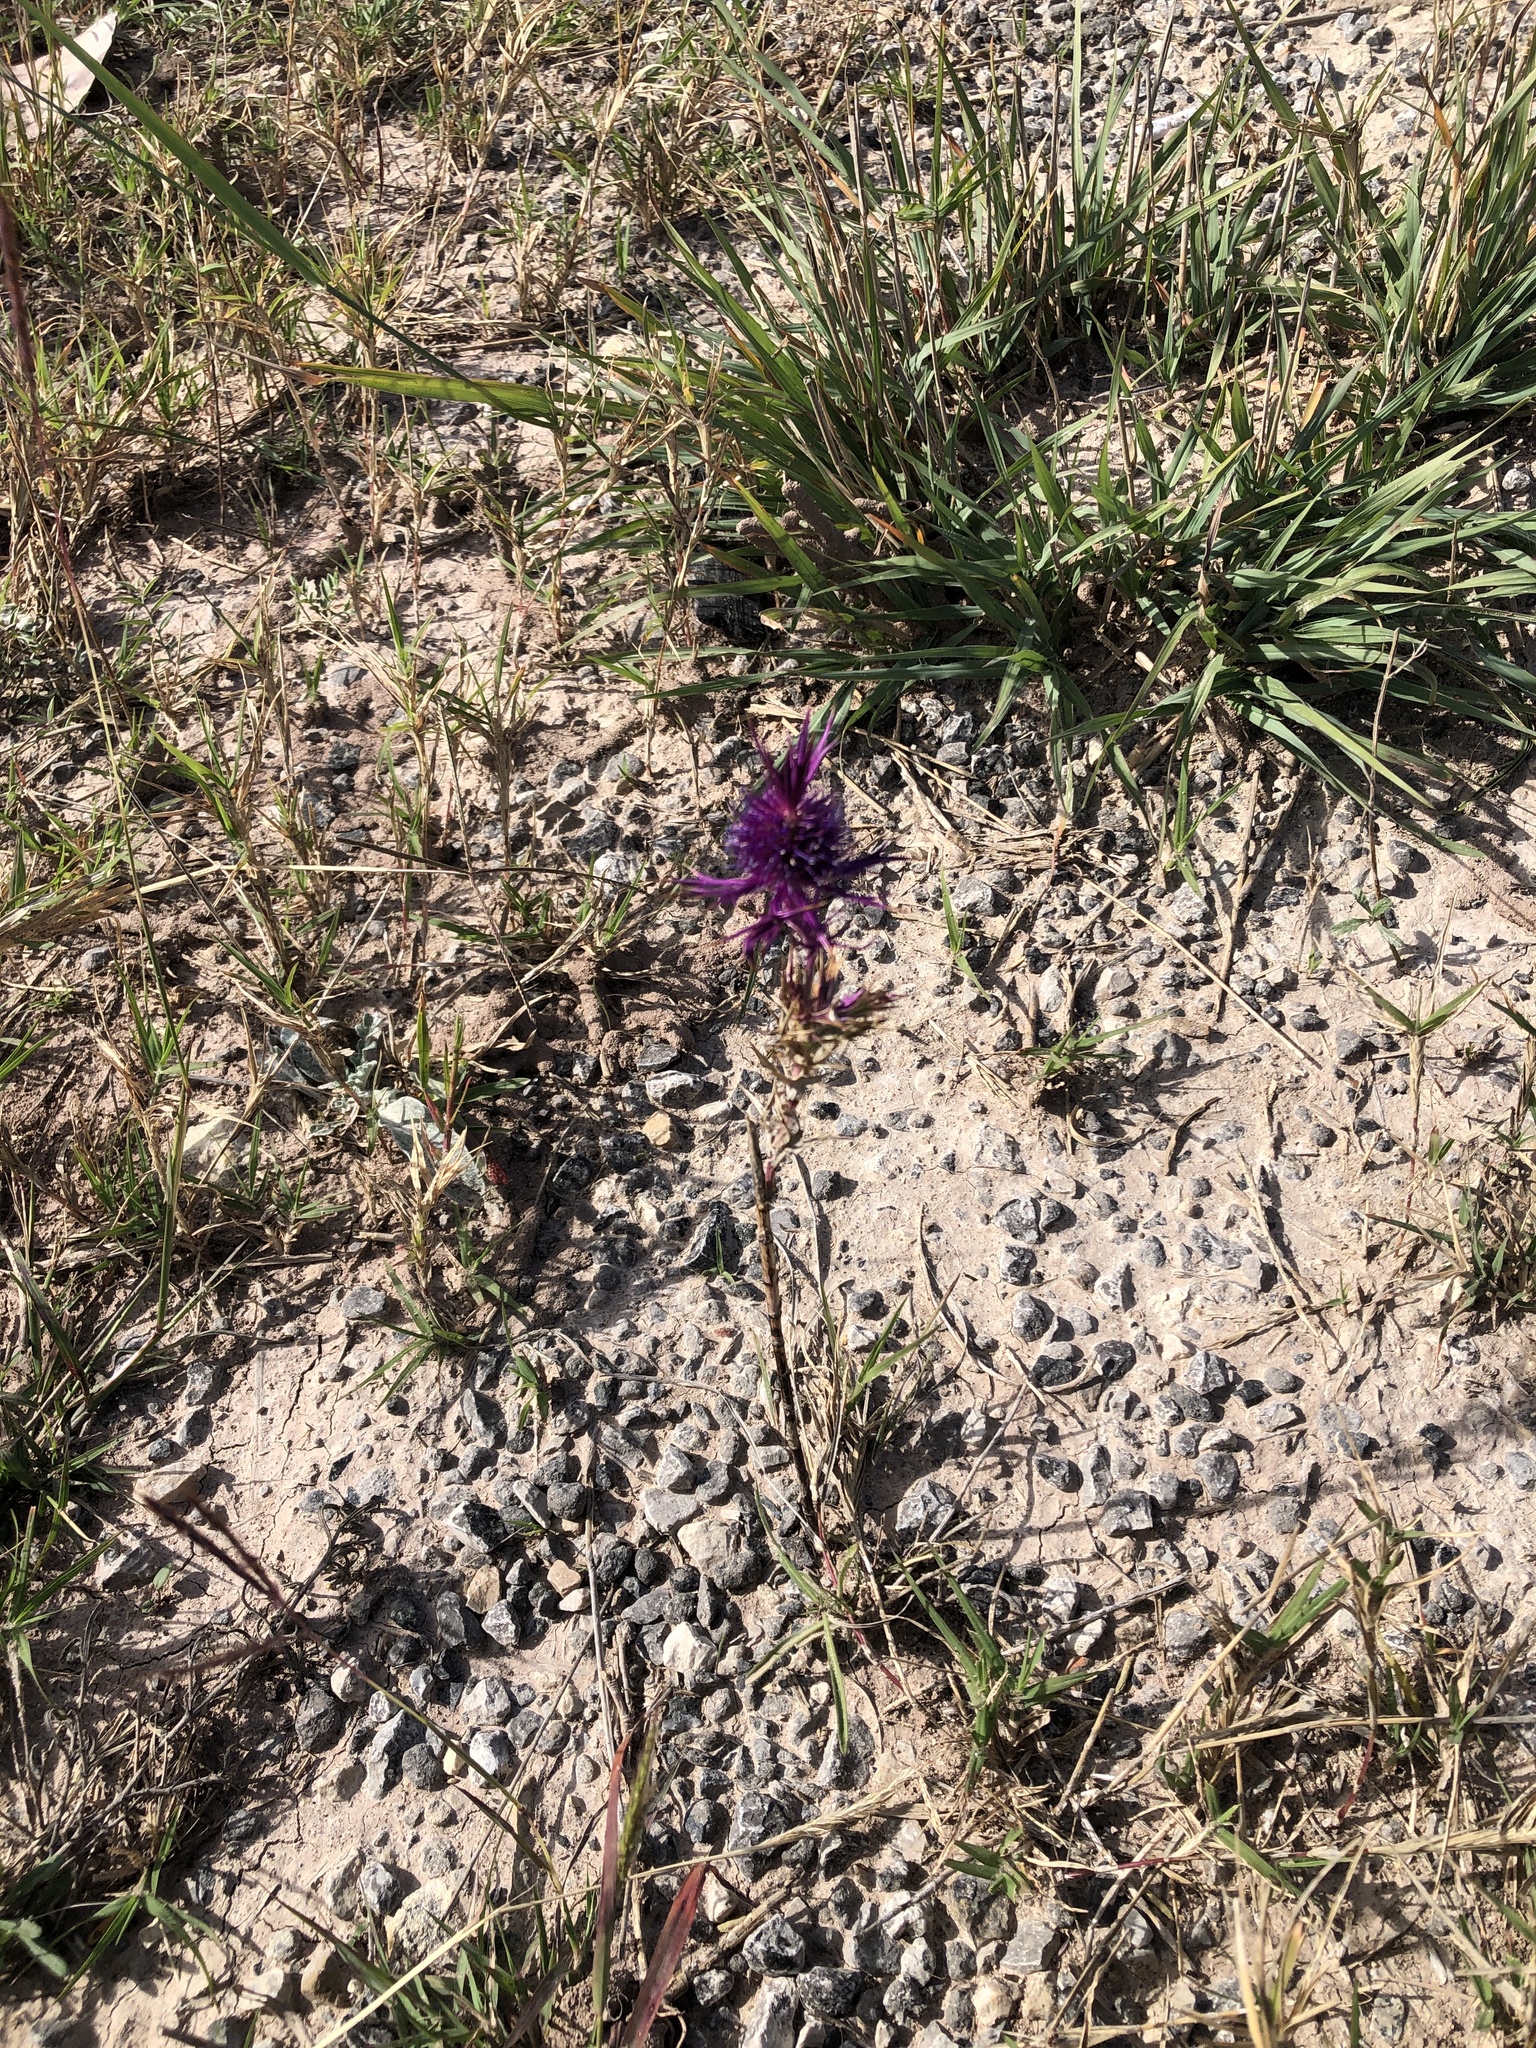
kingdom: Plantae
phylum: Tracheophyta
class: Magnoliopsida
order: Apiales
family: Apiaceae
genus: Eryngium
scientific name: Eryngium leavenworthii
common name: Leavenworth's eryngo
